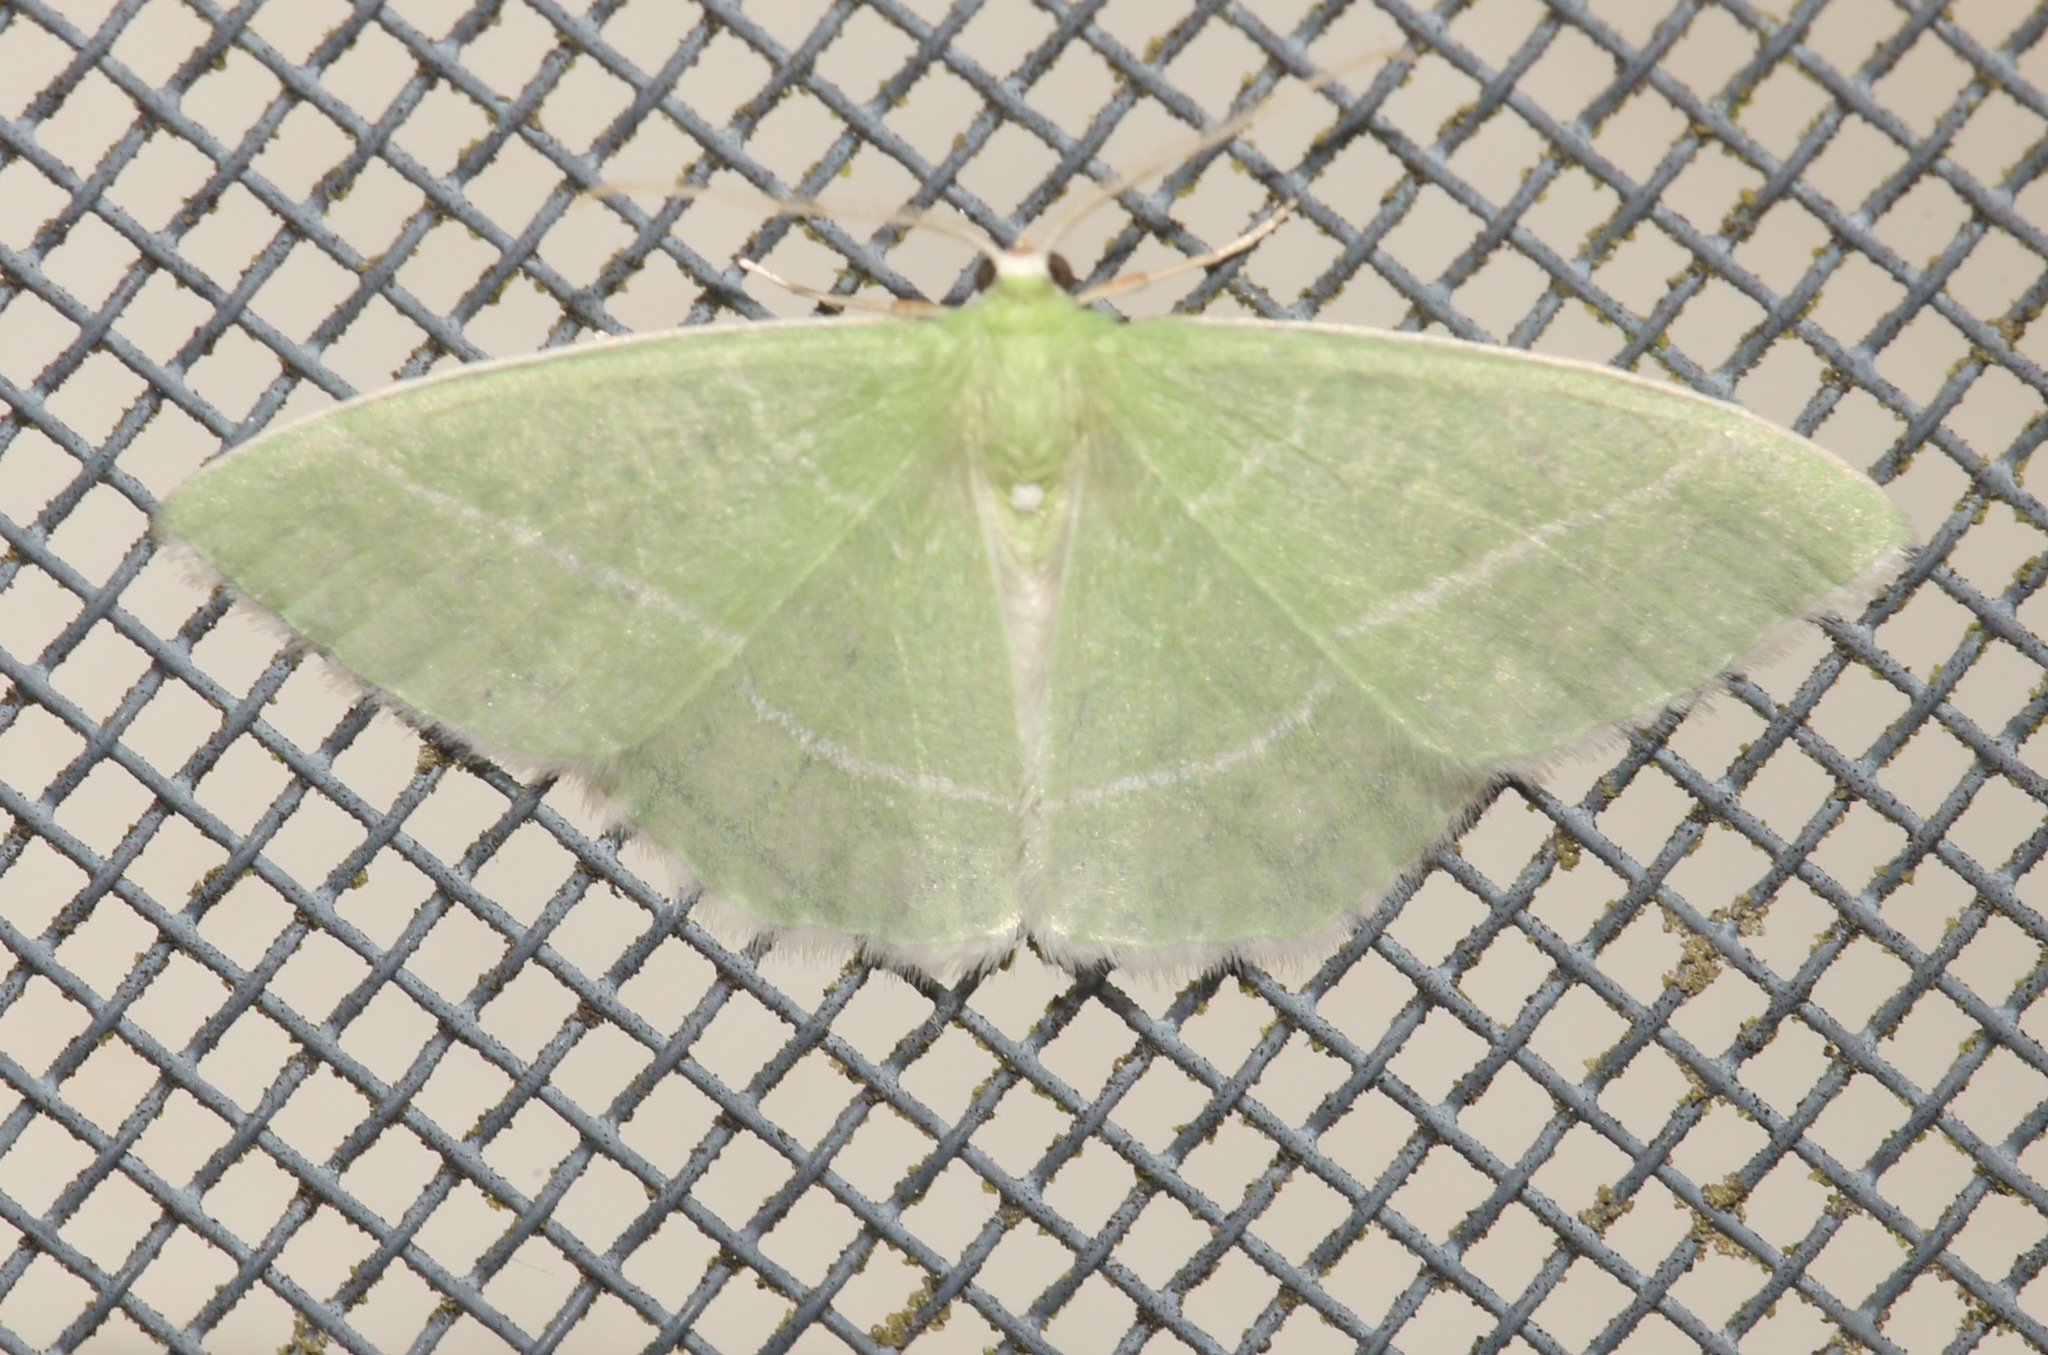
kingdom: Animalia
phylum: Arthropoda
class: Insecta
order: Lepidoptera
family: Geometridae
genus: Nemoria
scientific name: Nemoria mimosaria
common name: White-fringed emerald
